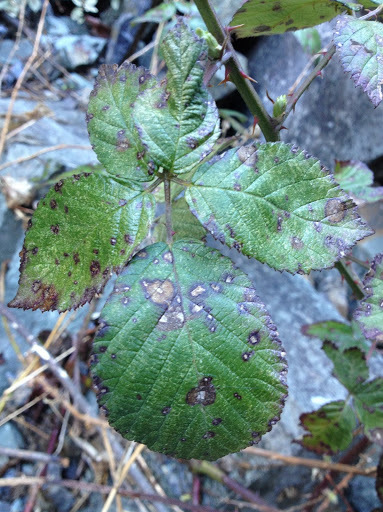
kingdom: Plantae
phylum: Tracheophyta
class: Magnoliopsida
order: Rosales
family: Rosaceae
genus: Rubus
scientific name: Rubus armeniacus
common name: Himalayan blackberry
